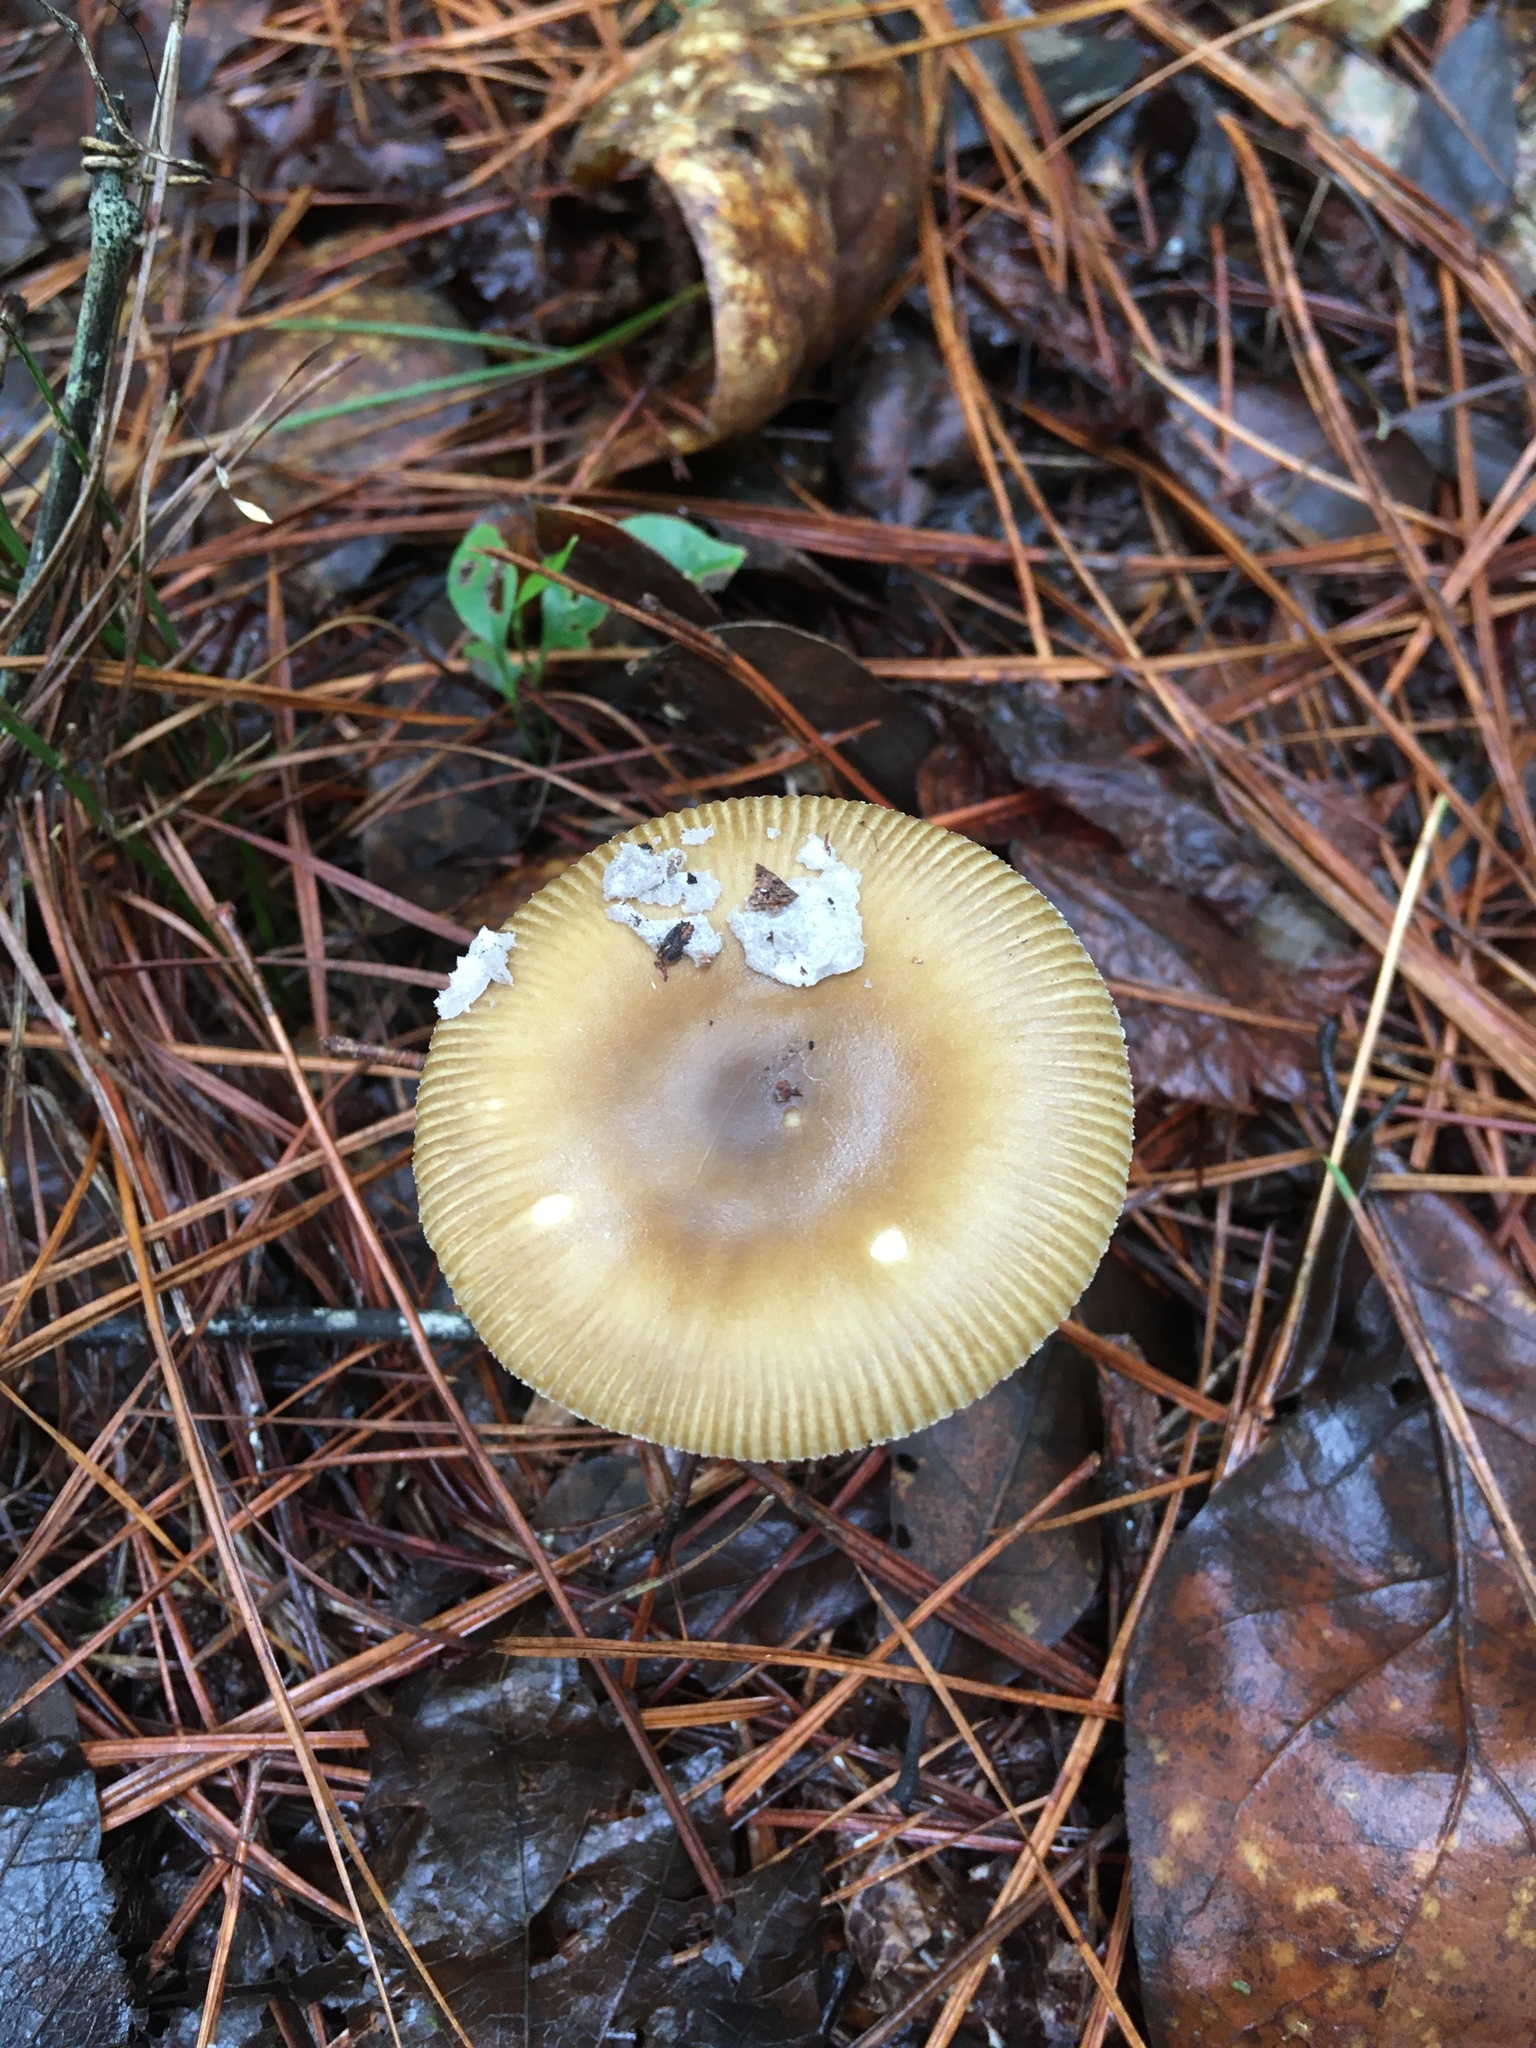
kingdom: Fungi
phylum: Basidiomycota
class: Agaricomycetes
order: Agaricales
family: Amanitaceae
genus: Amanita
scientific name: Amanita fulva
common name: Tawny grisette
